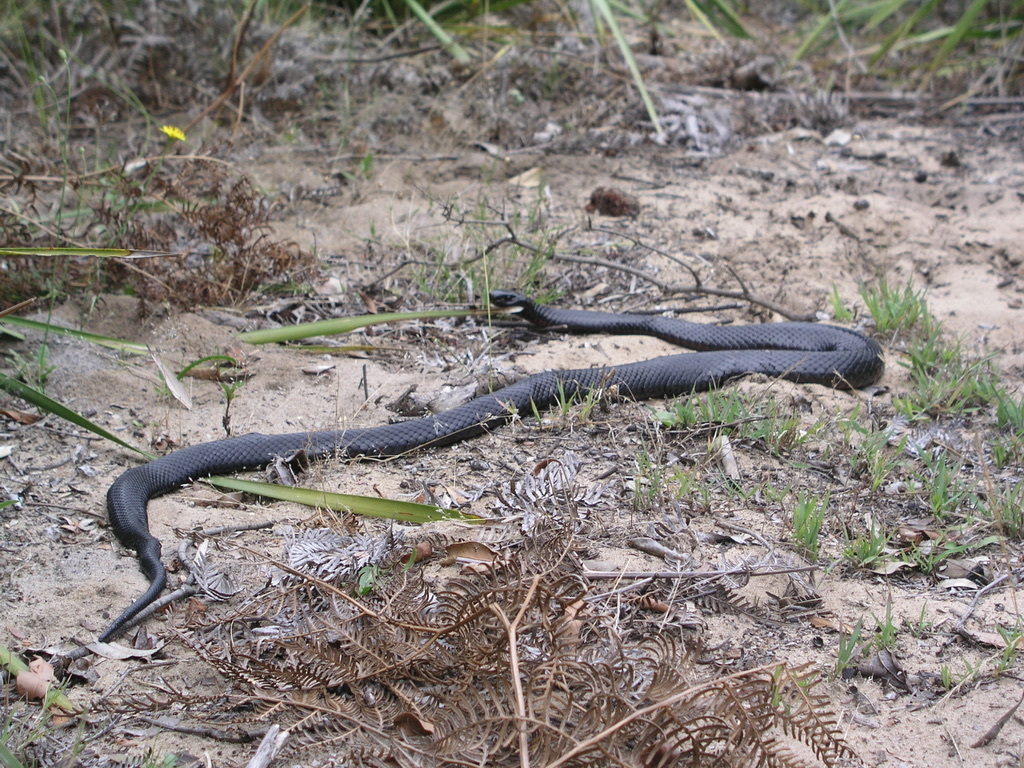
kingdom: Animalia
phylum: Chordata
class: Squamata
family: Elapidae
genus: Pseudechis
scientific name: Pseudechis porphyriacus
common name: Australian black snake
